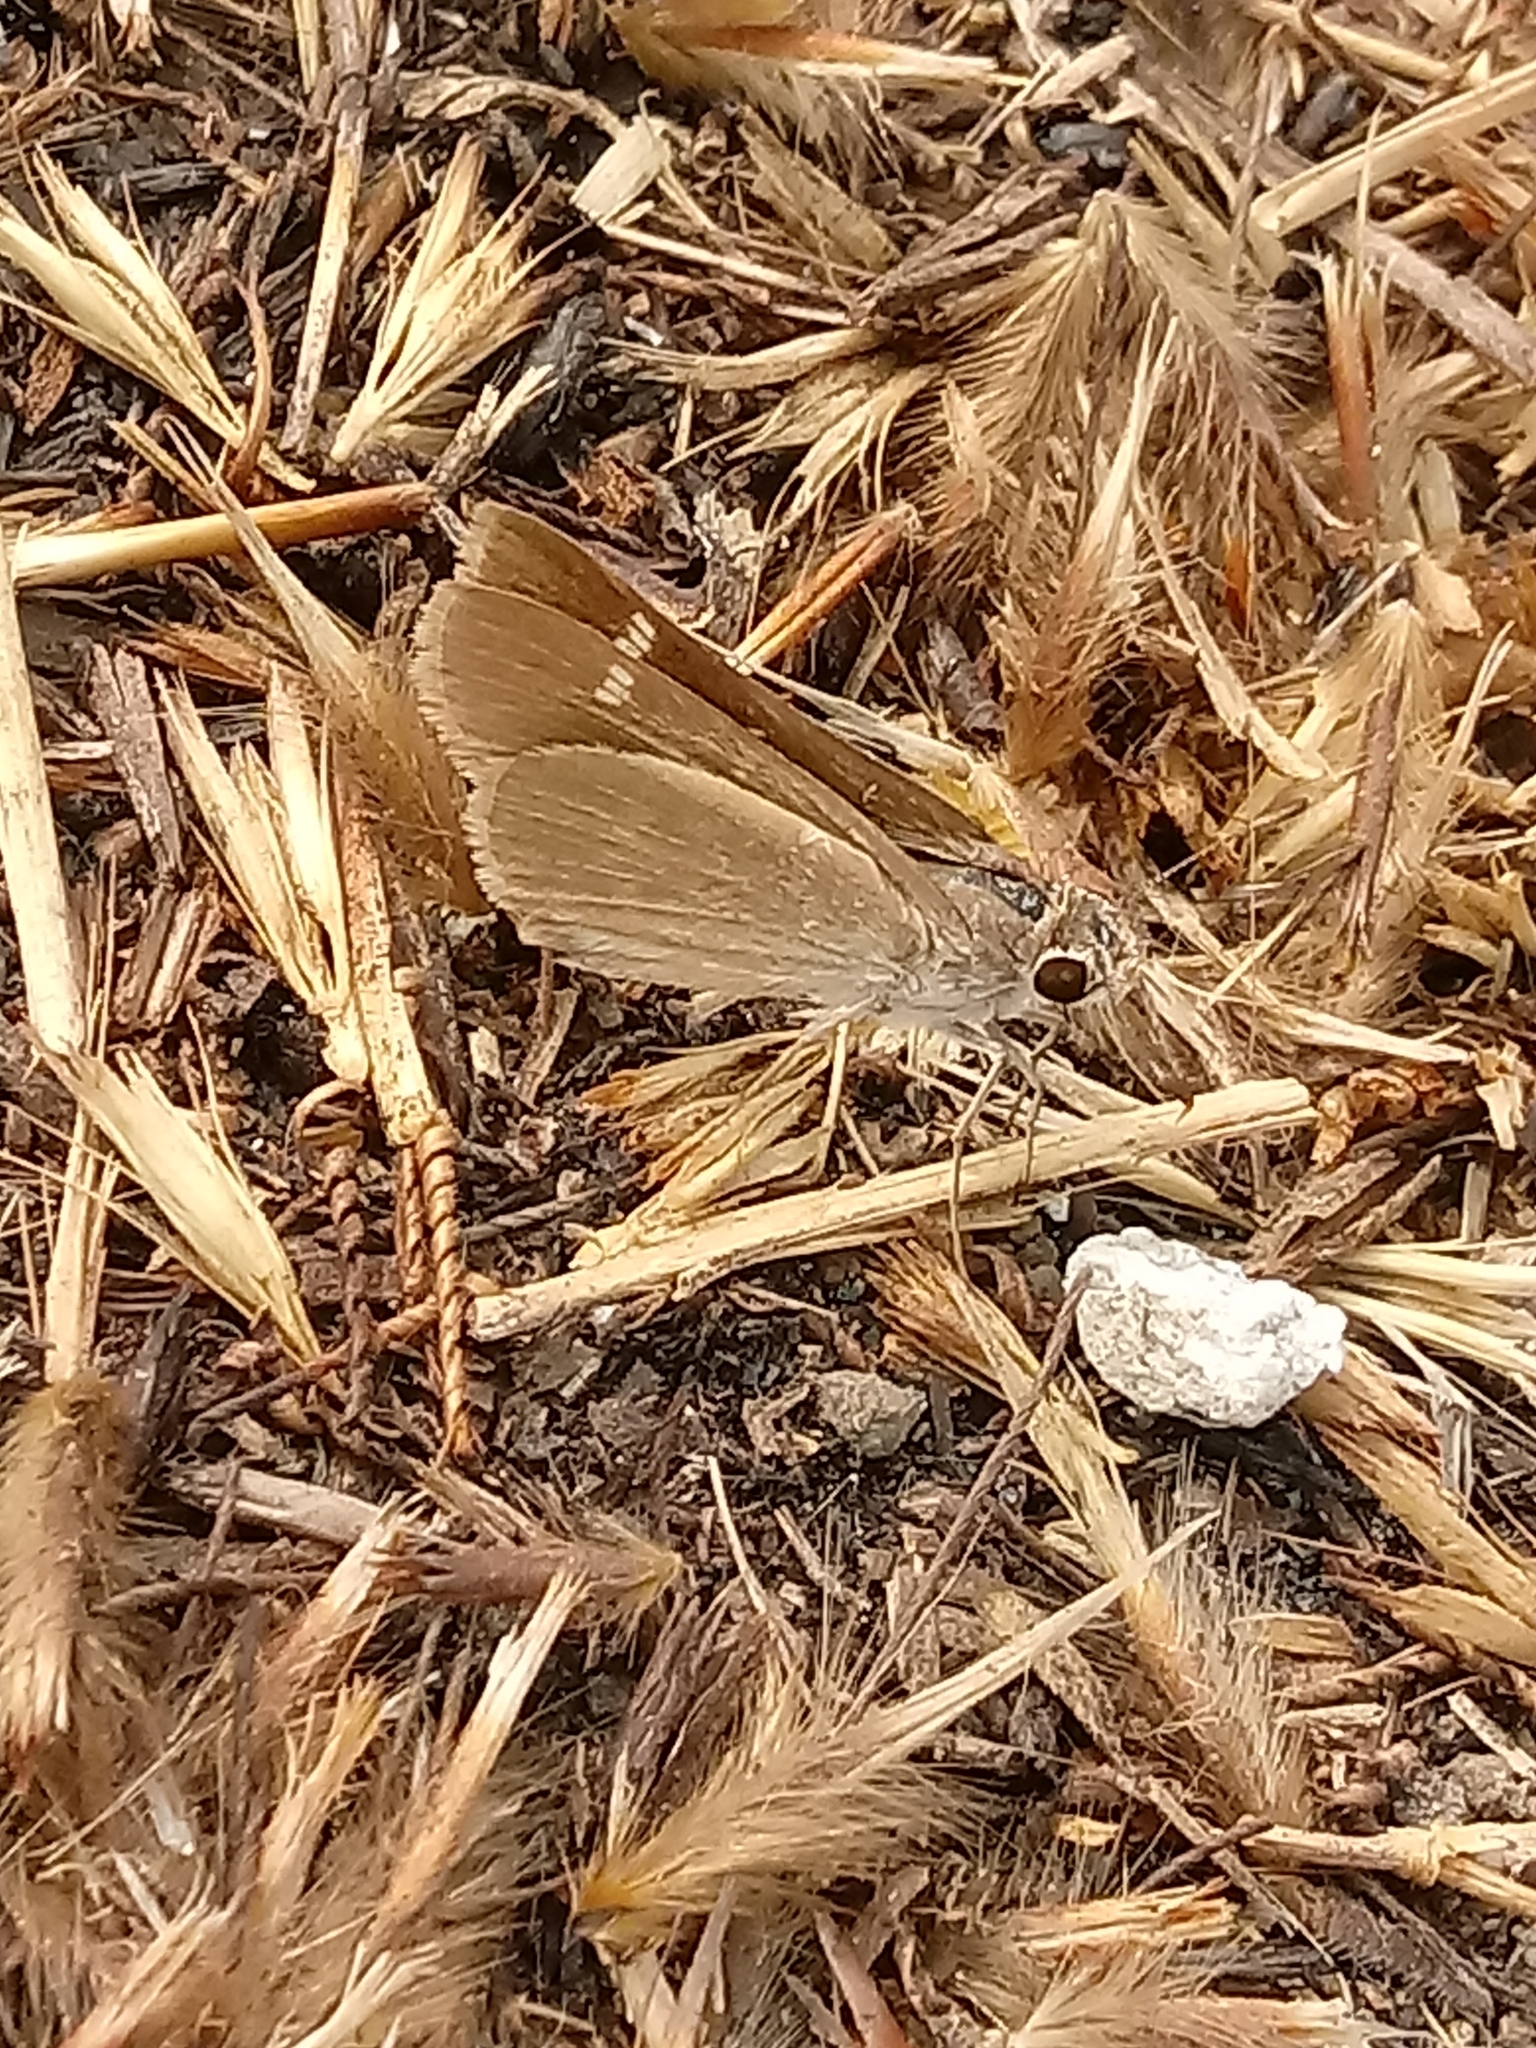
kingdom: Animalia
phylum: Arthropoda
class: Insecta
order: Lepidoptera
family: Hesperiidae
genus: Lerodea
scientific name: Lerodea eufala
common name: Eufala skipper
